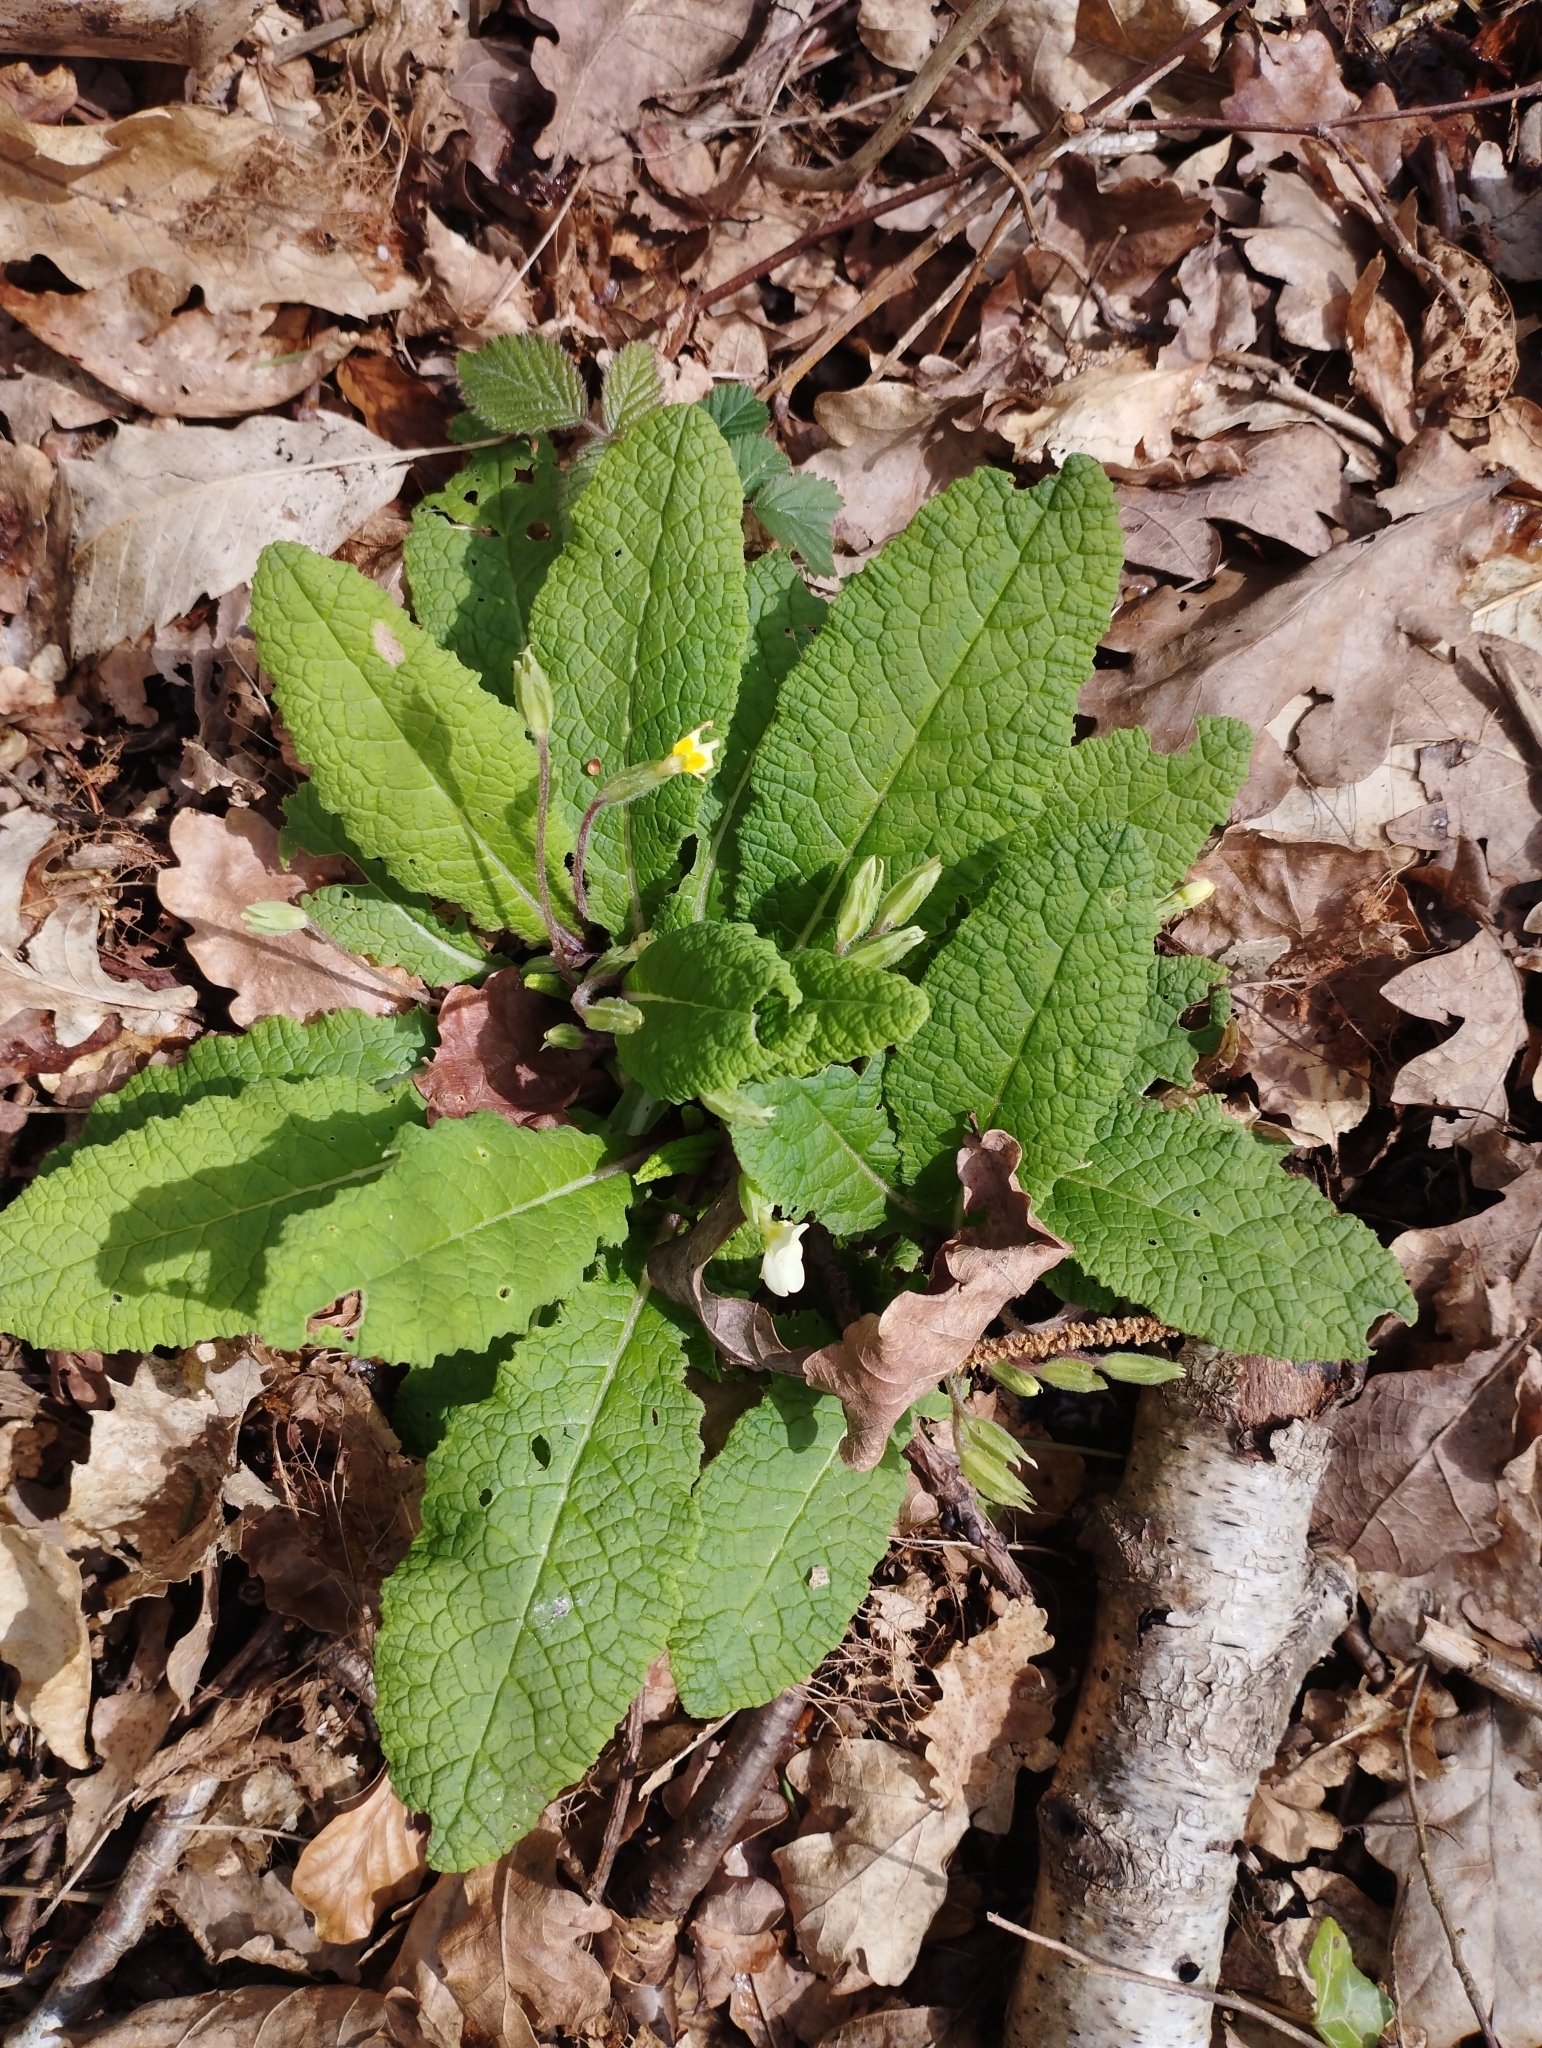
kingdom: Plantae
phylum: Tracheophyta
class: Magnoliopsida
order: Ericales
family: Primulaceae
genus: Primula
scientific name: Primula vulgaris
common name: Primrose
